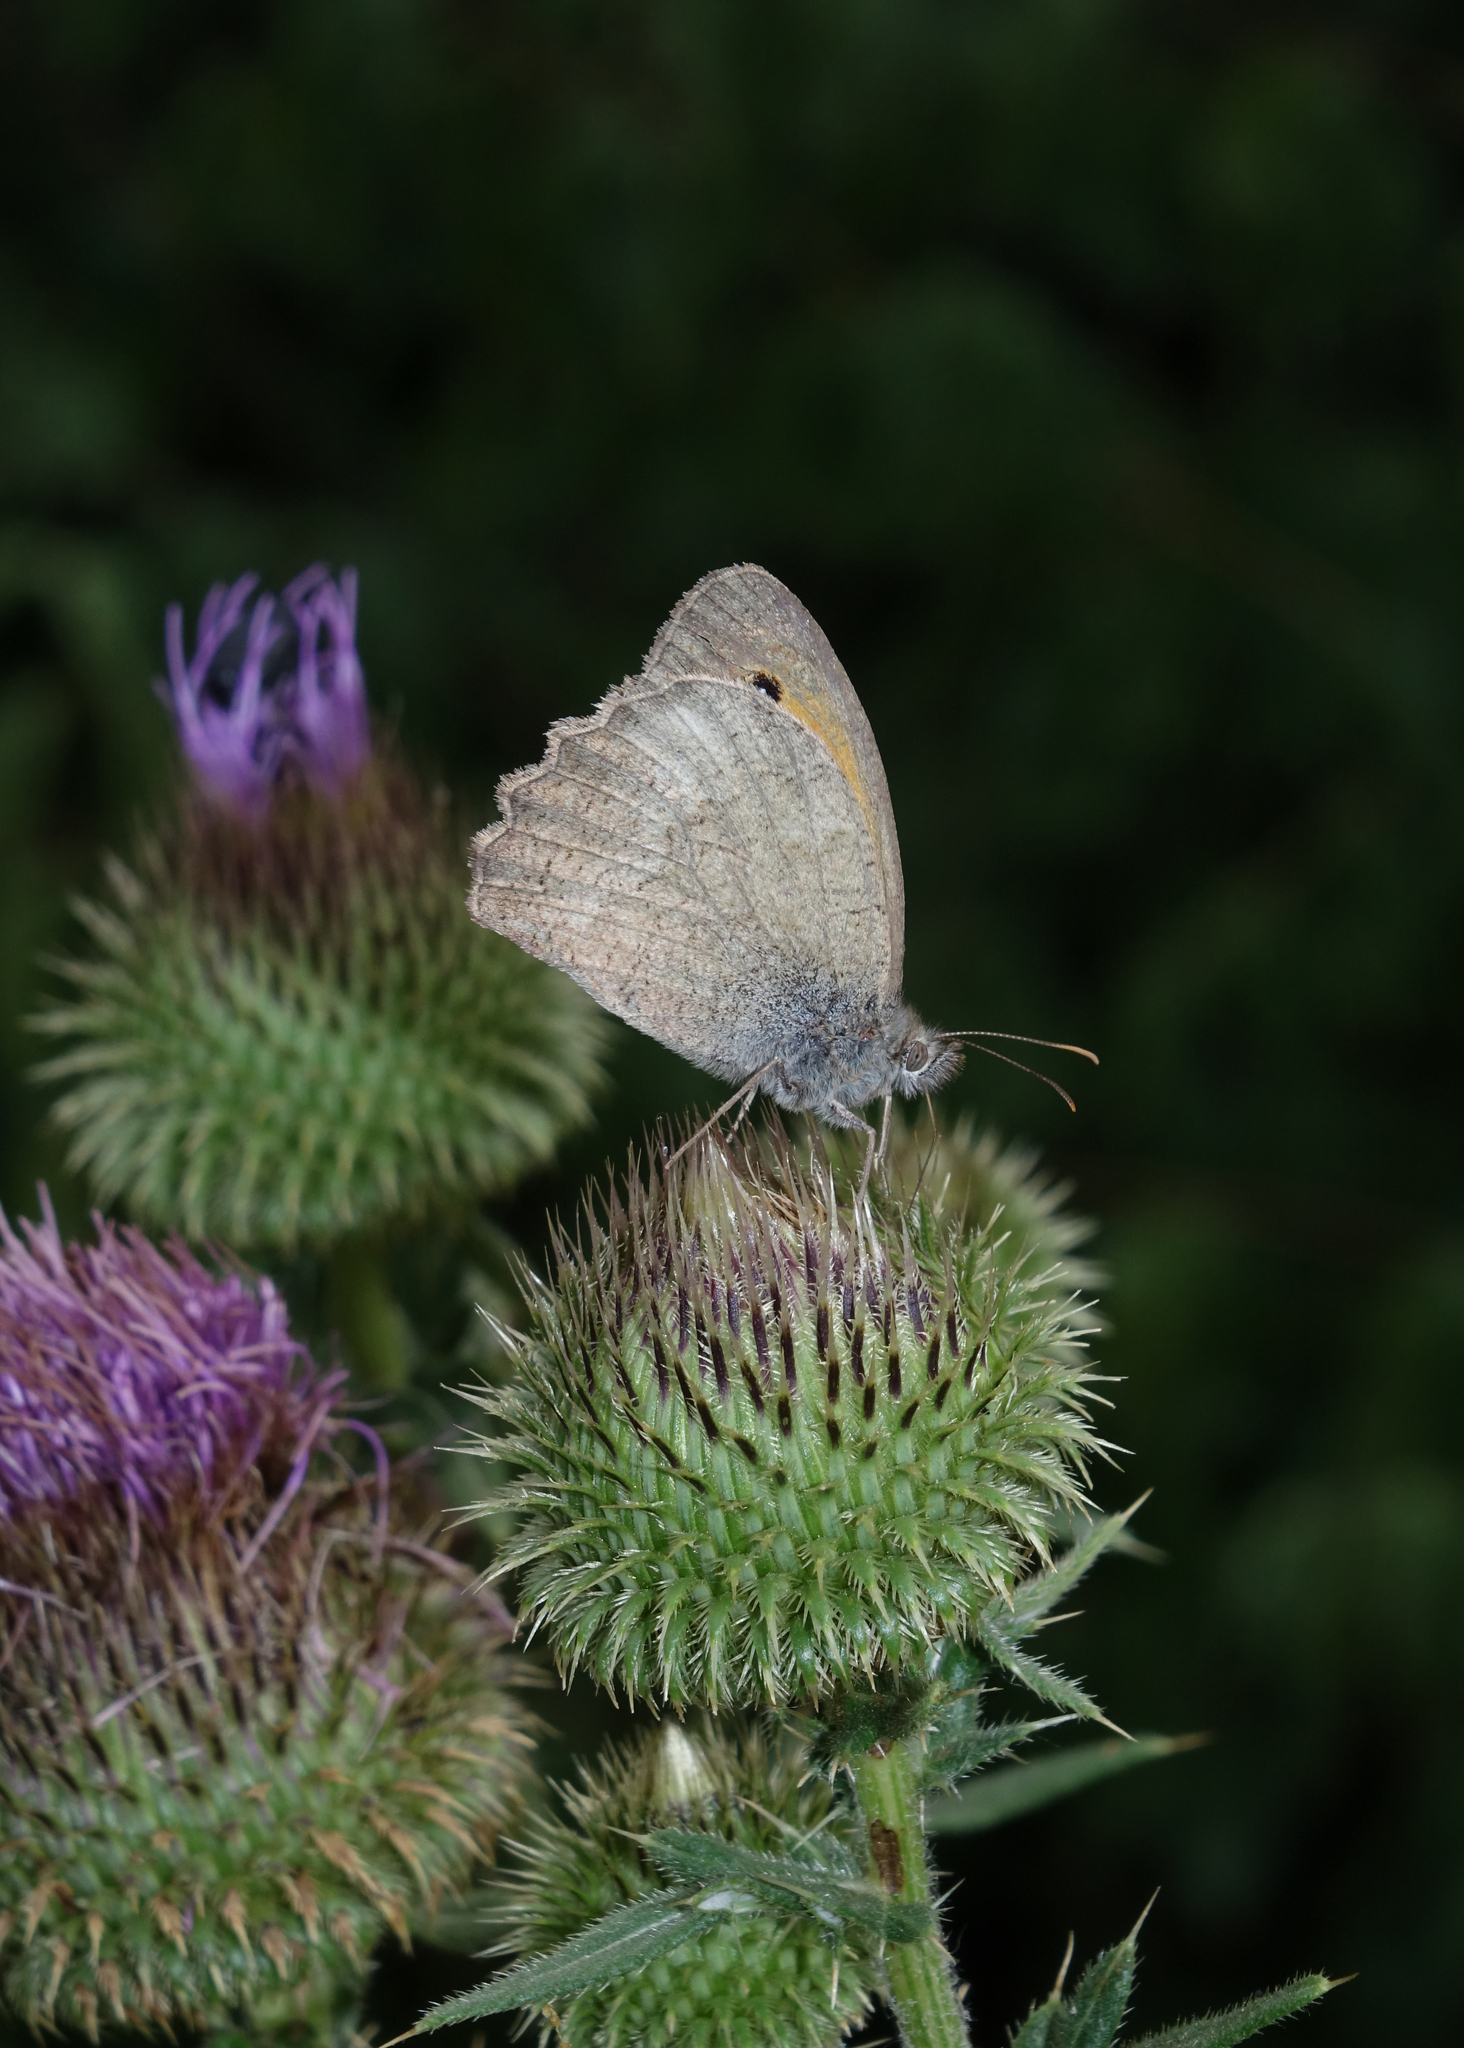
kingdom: Plantae
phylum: Tracheophyta
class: Magnoliopsida
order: Asterales
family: Asteraceae
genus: Lophiolepis
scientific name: Lophiolepis ciliata
